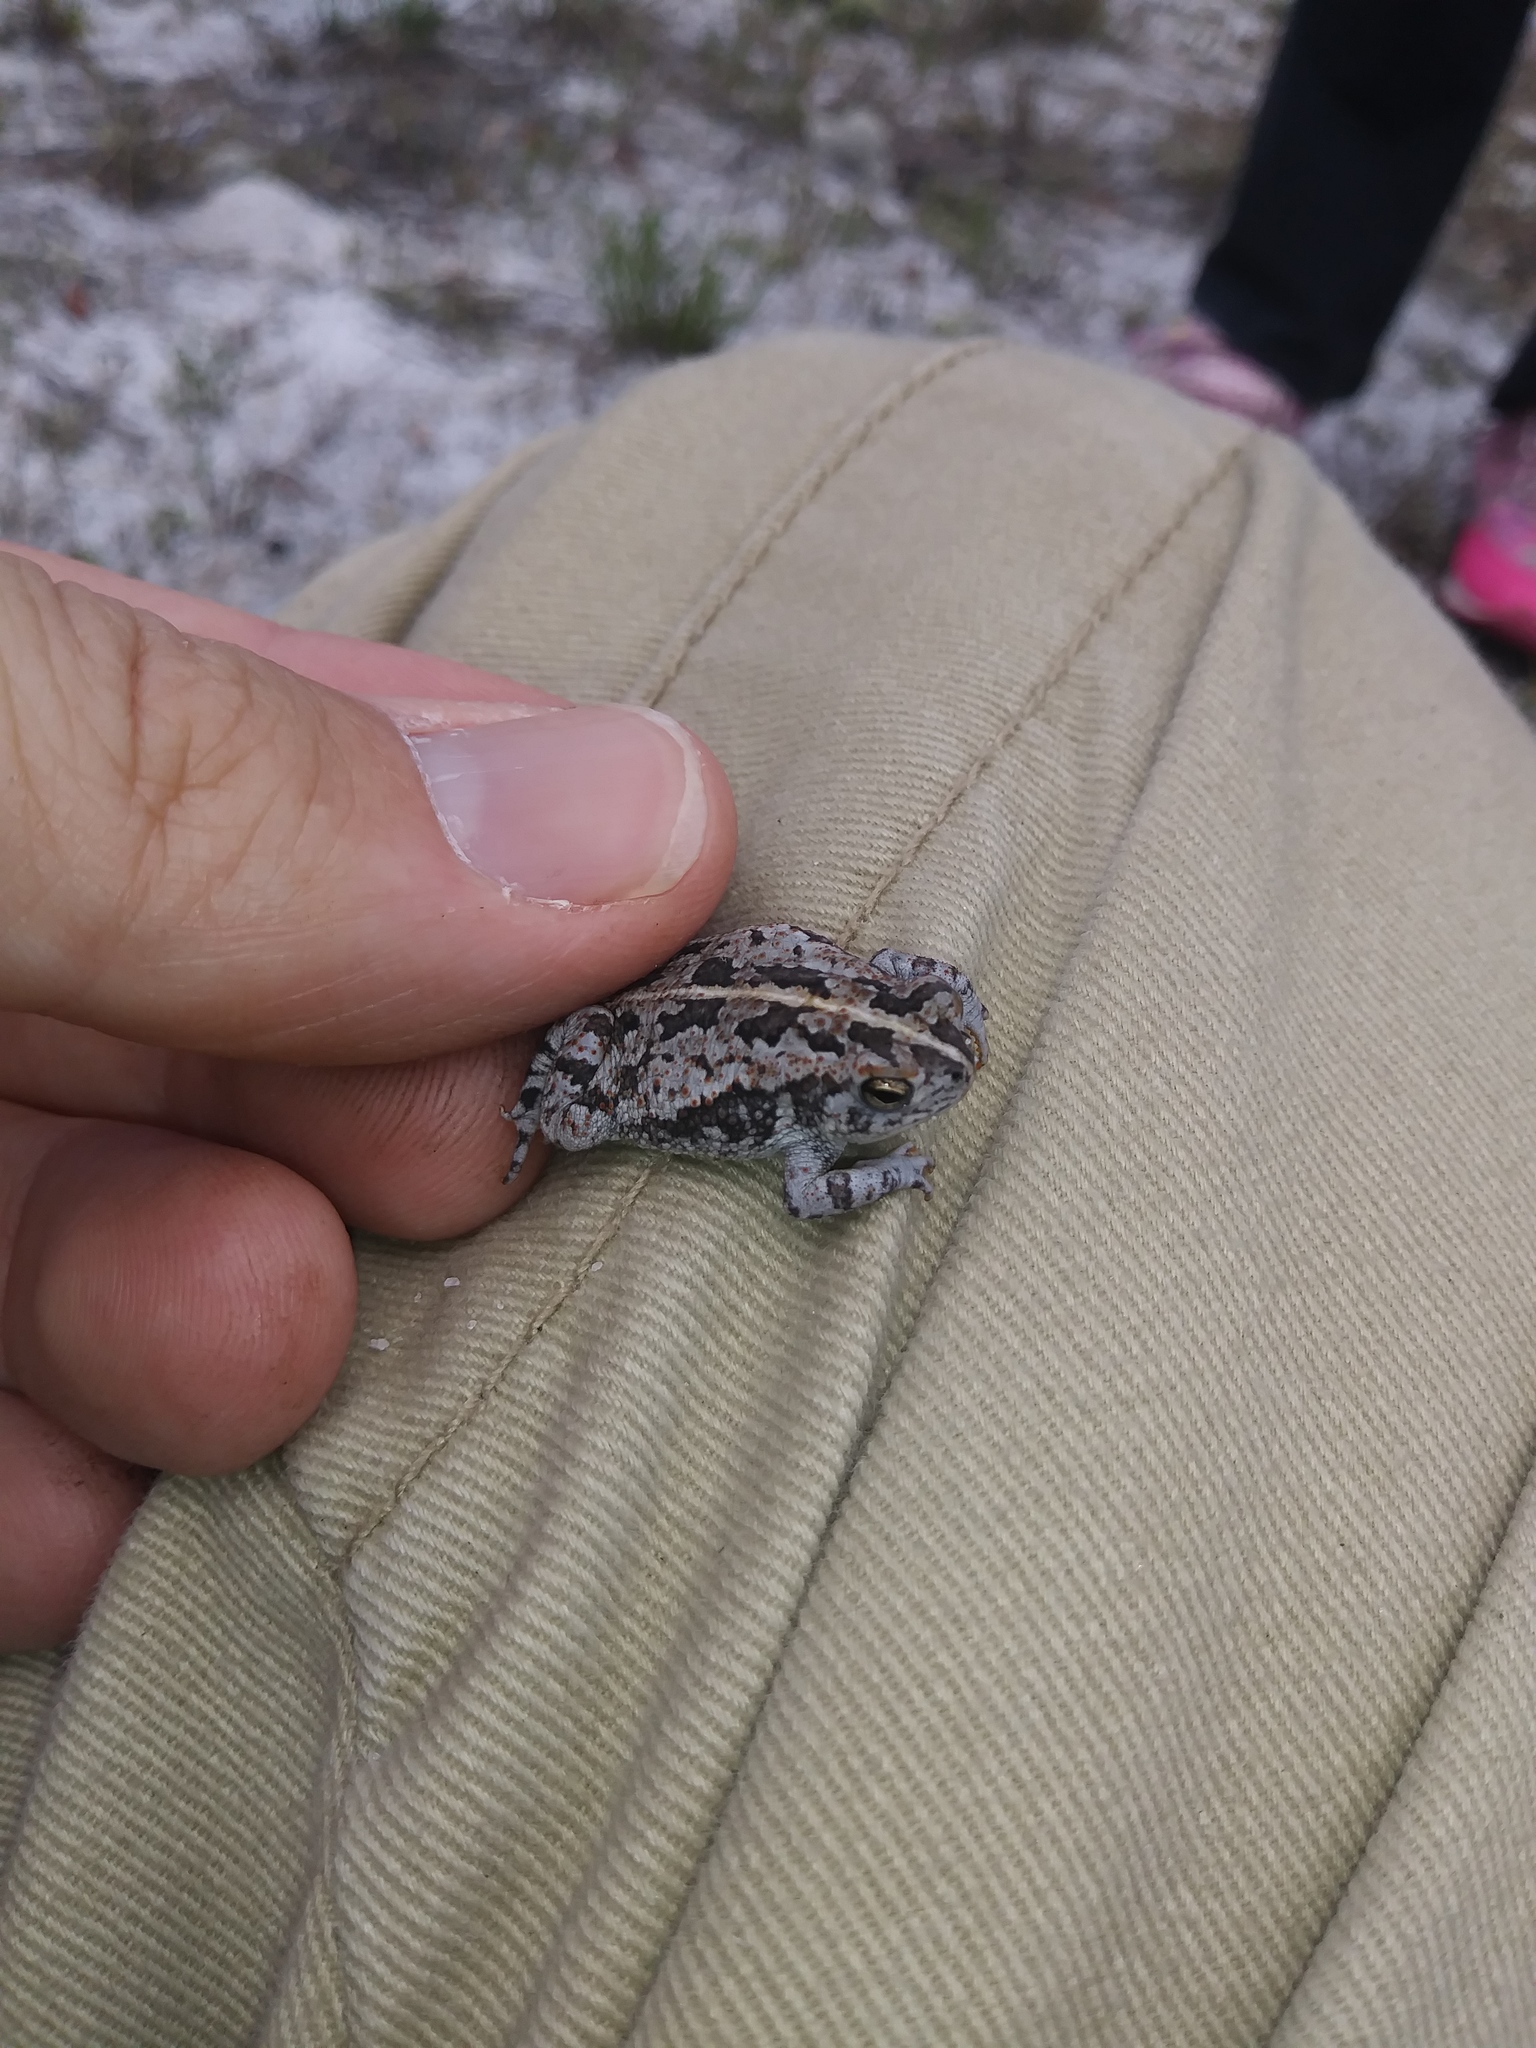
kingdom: Animalia
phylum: Chordata
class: Amphibia
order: Anura
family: Bufonidae
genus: Anaxyrus
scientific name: Anaxyrus quercicus
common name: Oak toad
